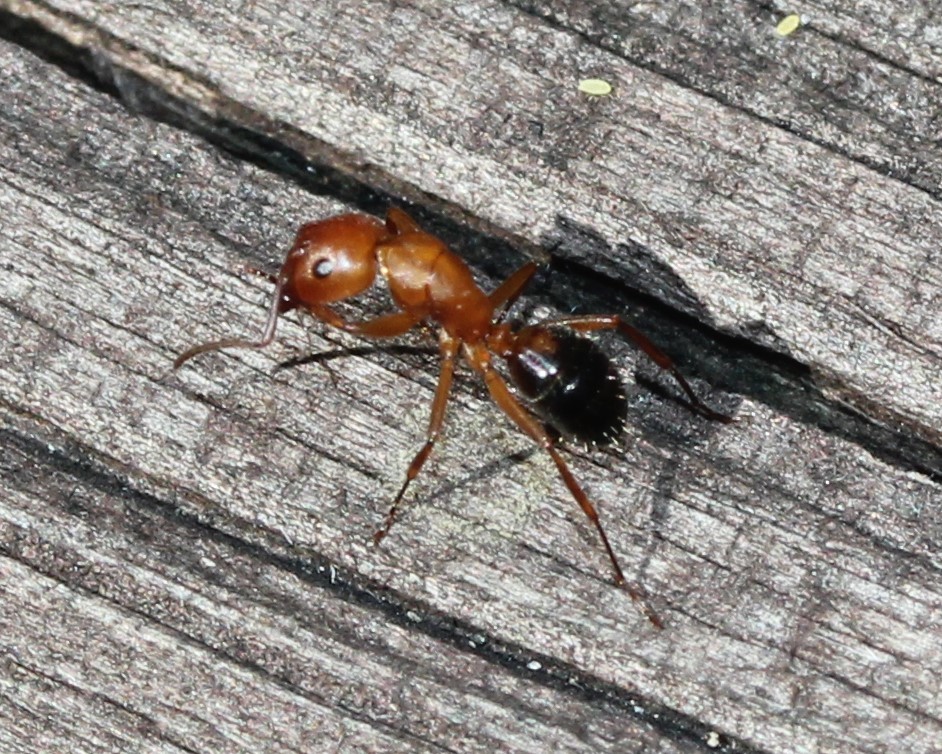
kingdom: Animalia
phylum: Arthropoda
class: Insecta
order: Hymenoptera
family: Formicidae
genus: Camponotus
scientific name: Camponotus decipiens
